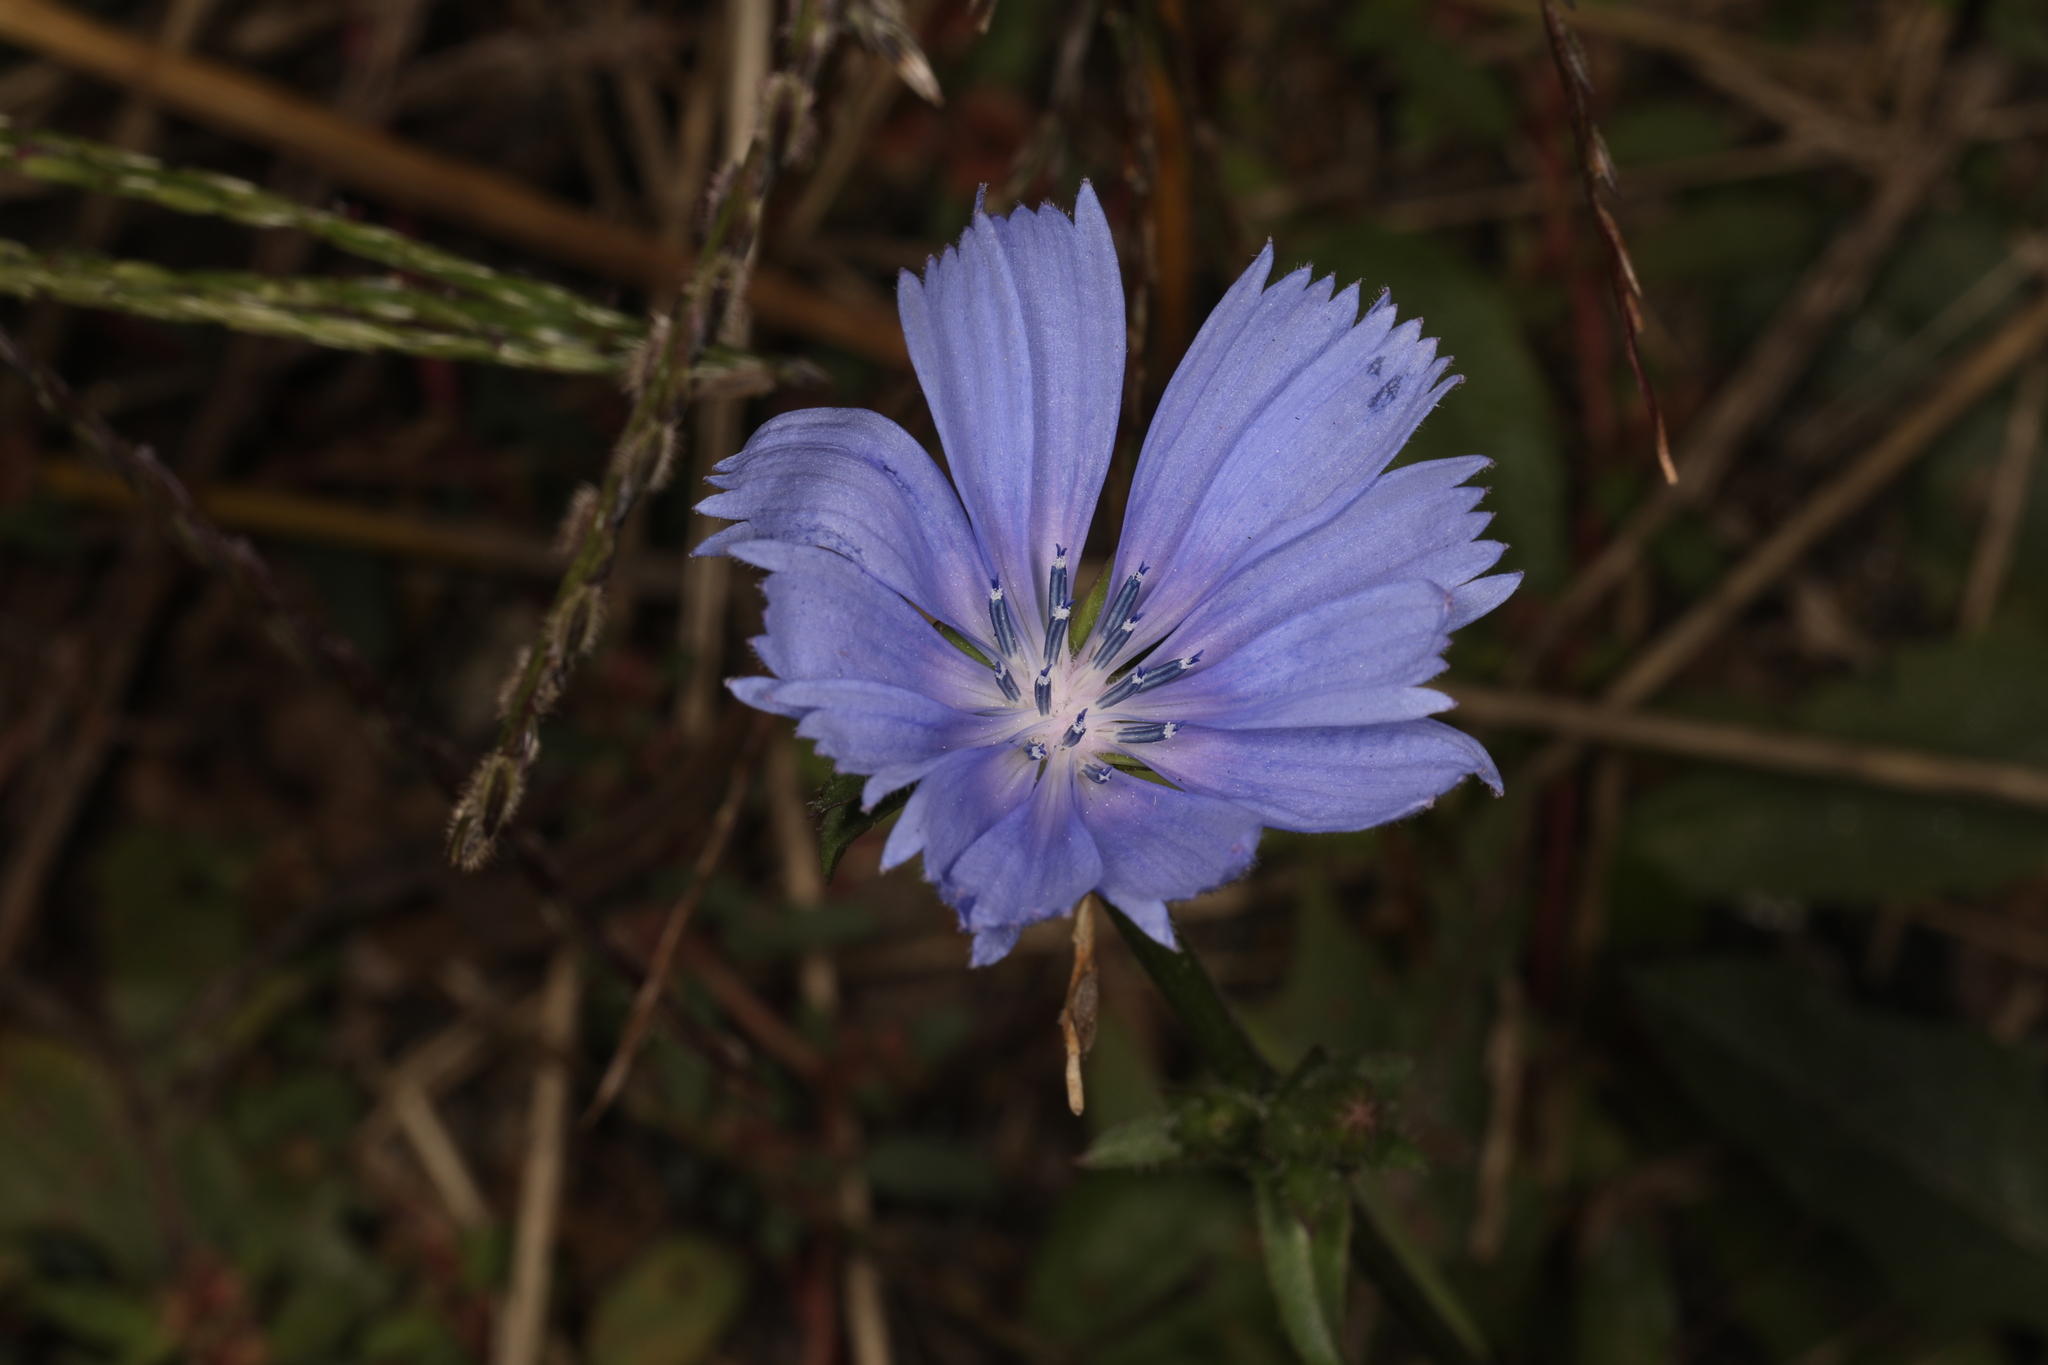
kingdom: Plantae
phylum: Tracheophyta
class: Magnoliopsida
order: Asterales
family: Asteraceae
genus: Cichorium
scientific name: Cichorium intybus
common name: Chicory
